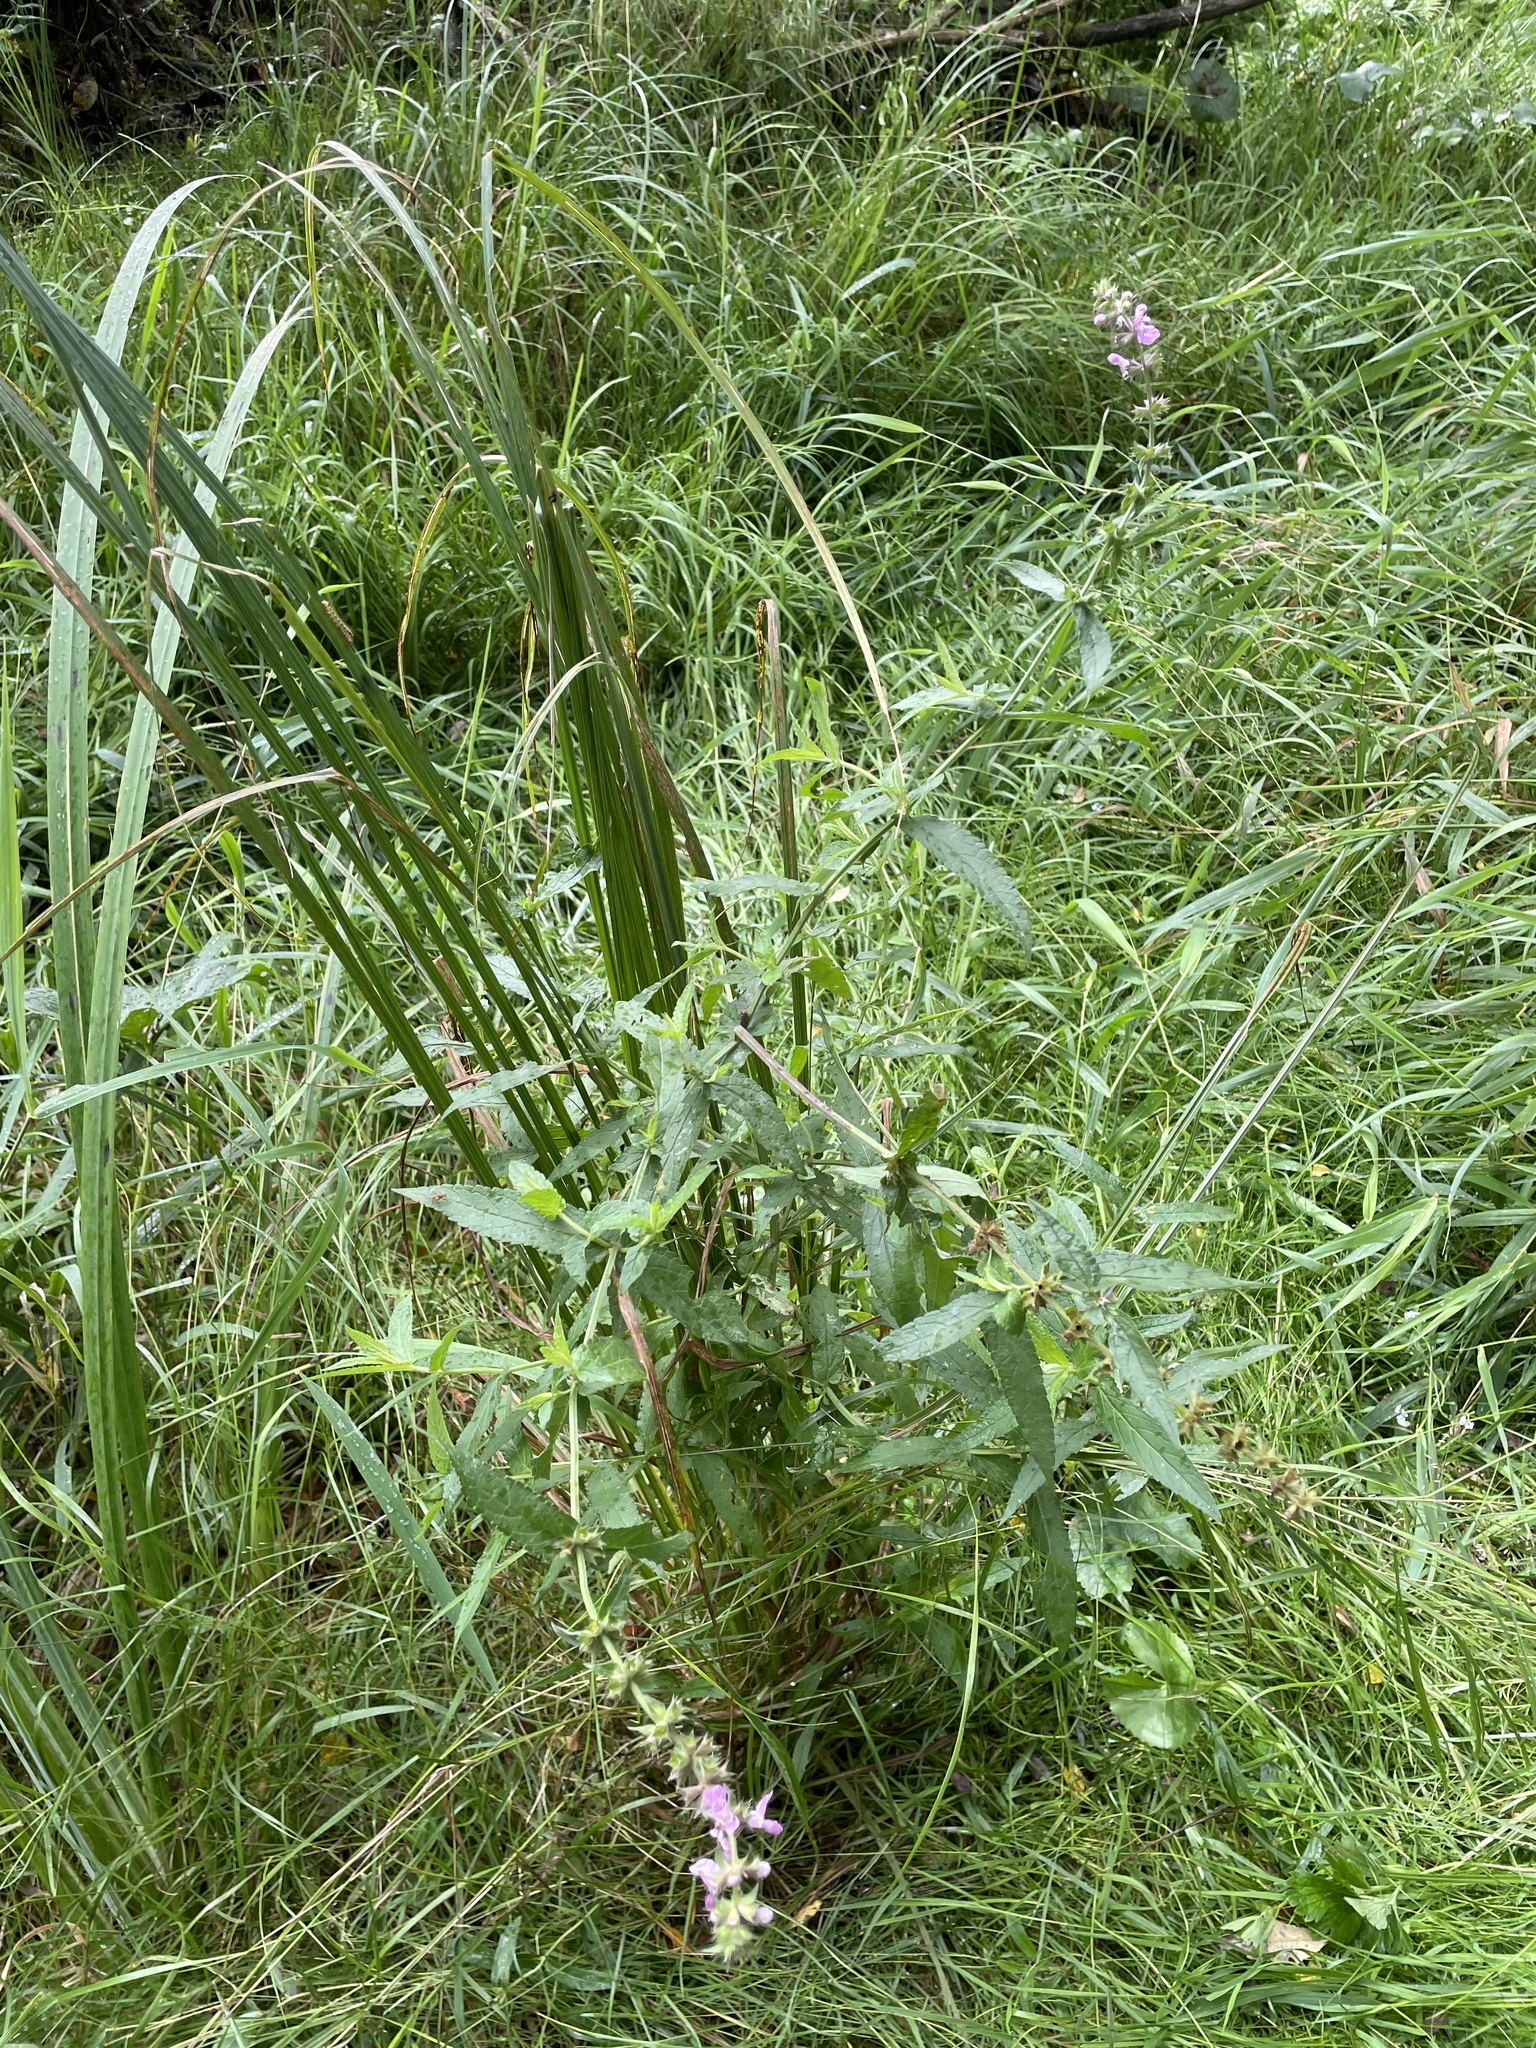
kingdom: Plantae
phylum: Tracheophyta
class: Magnoliopsida
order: Lamiales
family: Lamiaceae
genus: Stachys
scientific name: Stachys palustris
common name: Marsh woundwort
